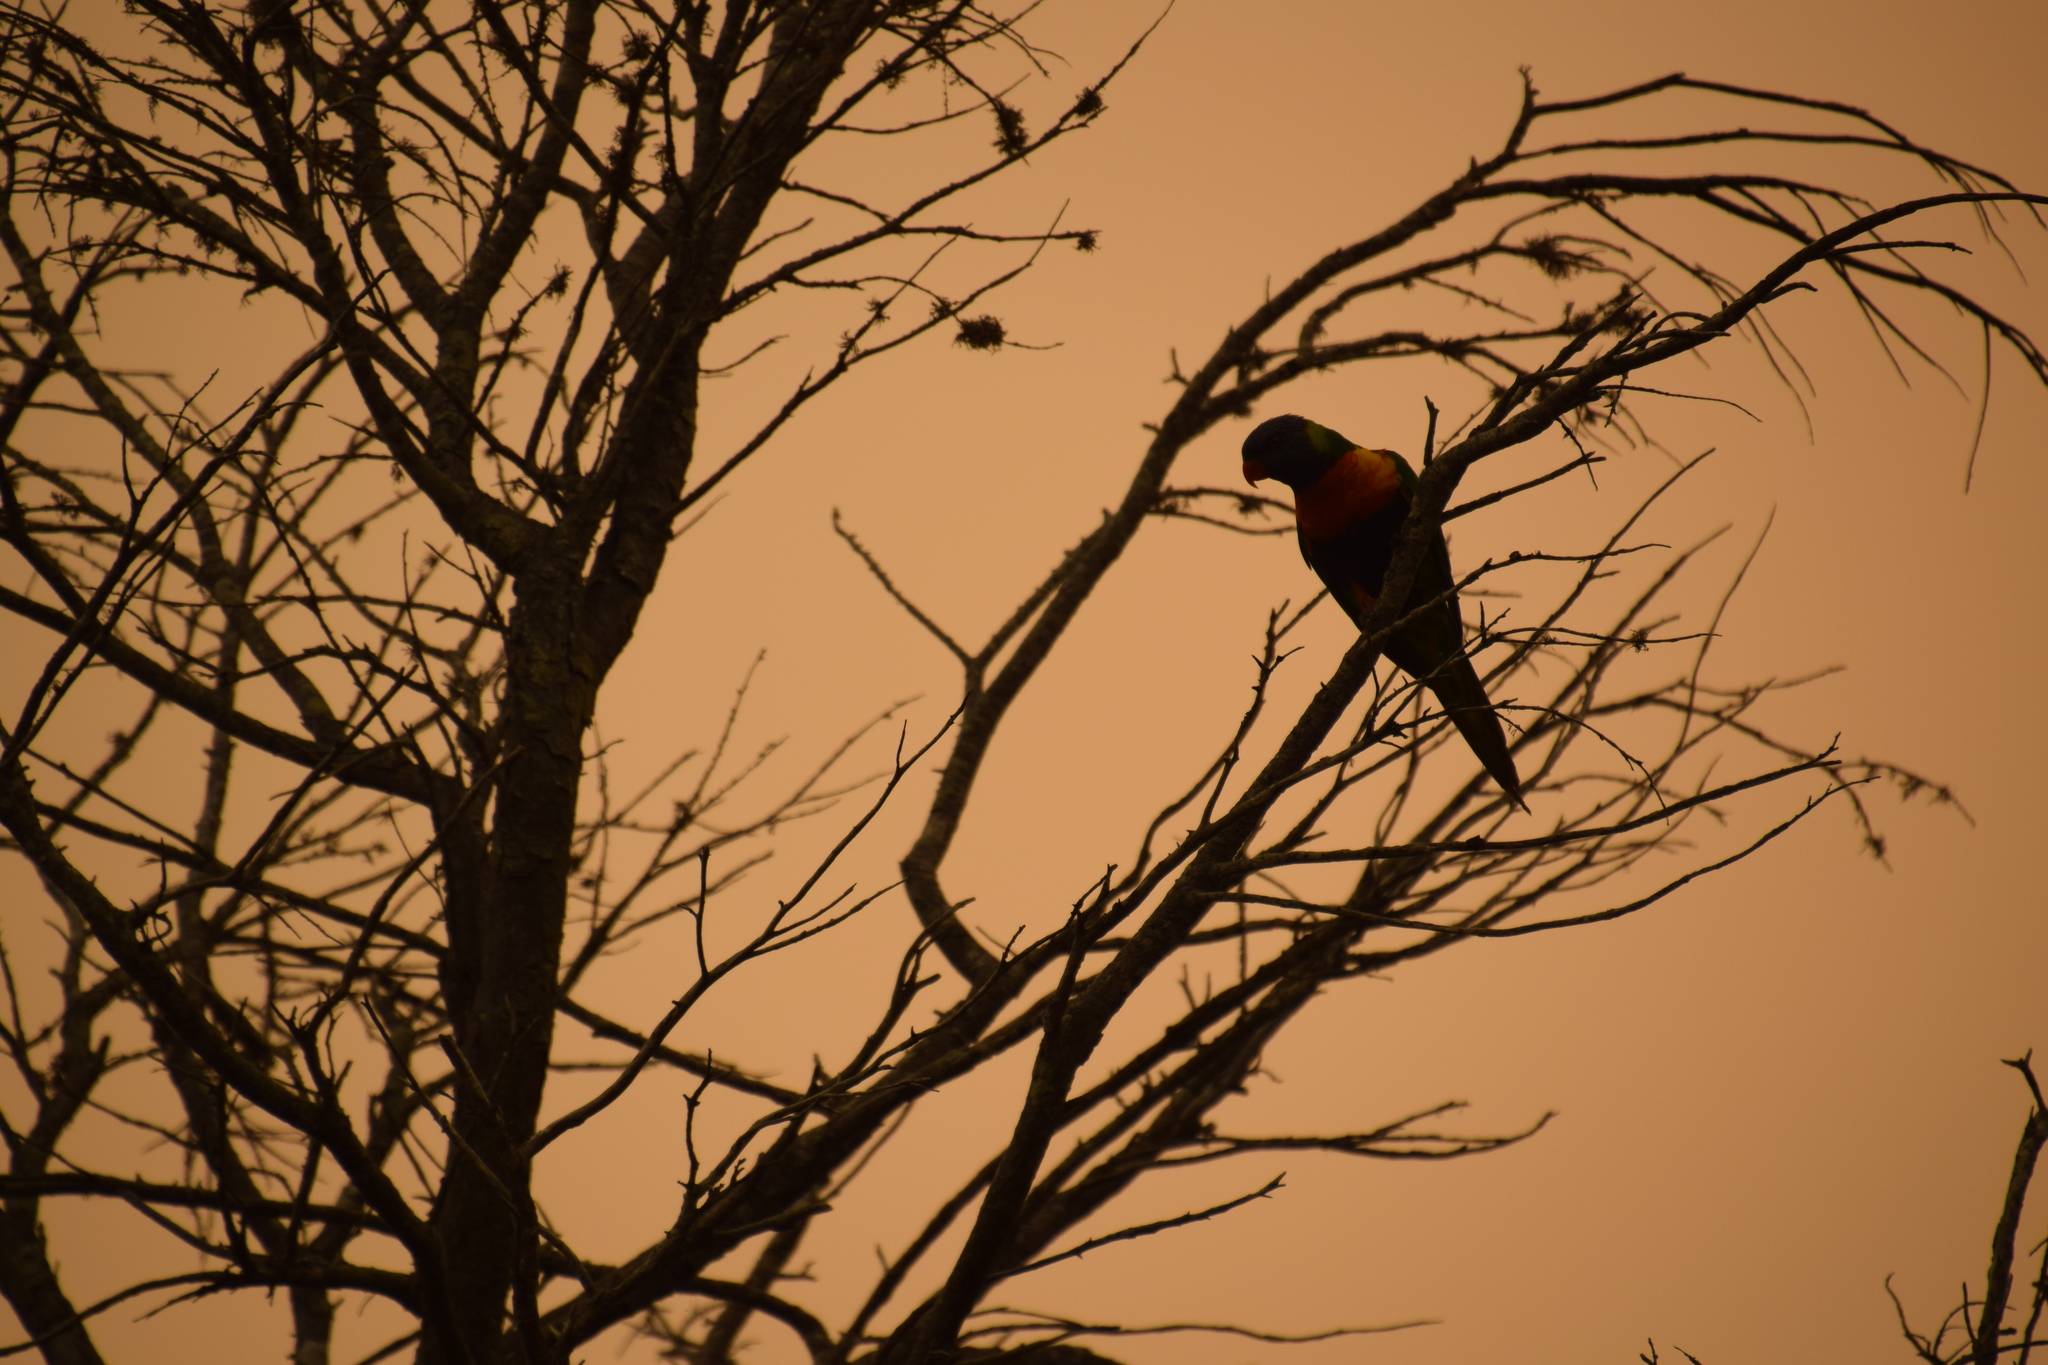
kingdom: Animalia
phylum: Chordata
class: Aves
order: Psittaciformes
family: Psittacidae
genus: Trichoglossus
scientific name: Trichoglossus haematodus
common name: Coconut lorikeet
